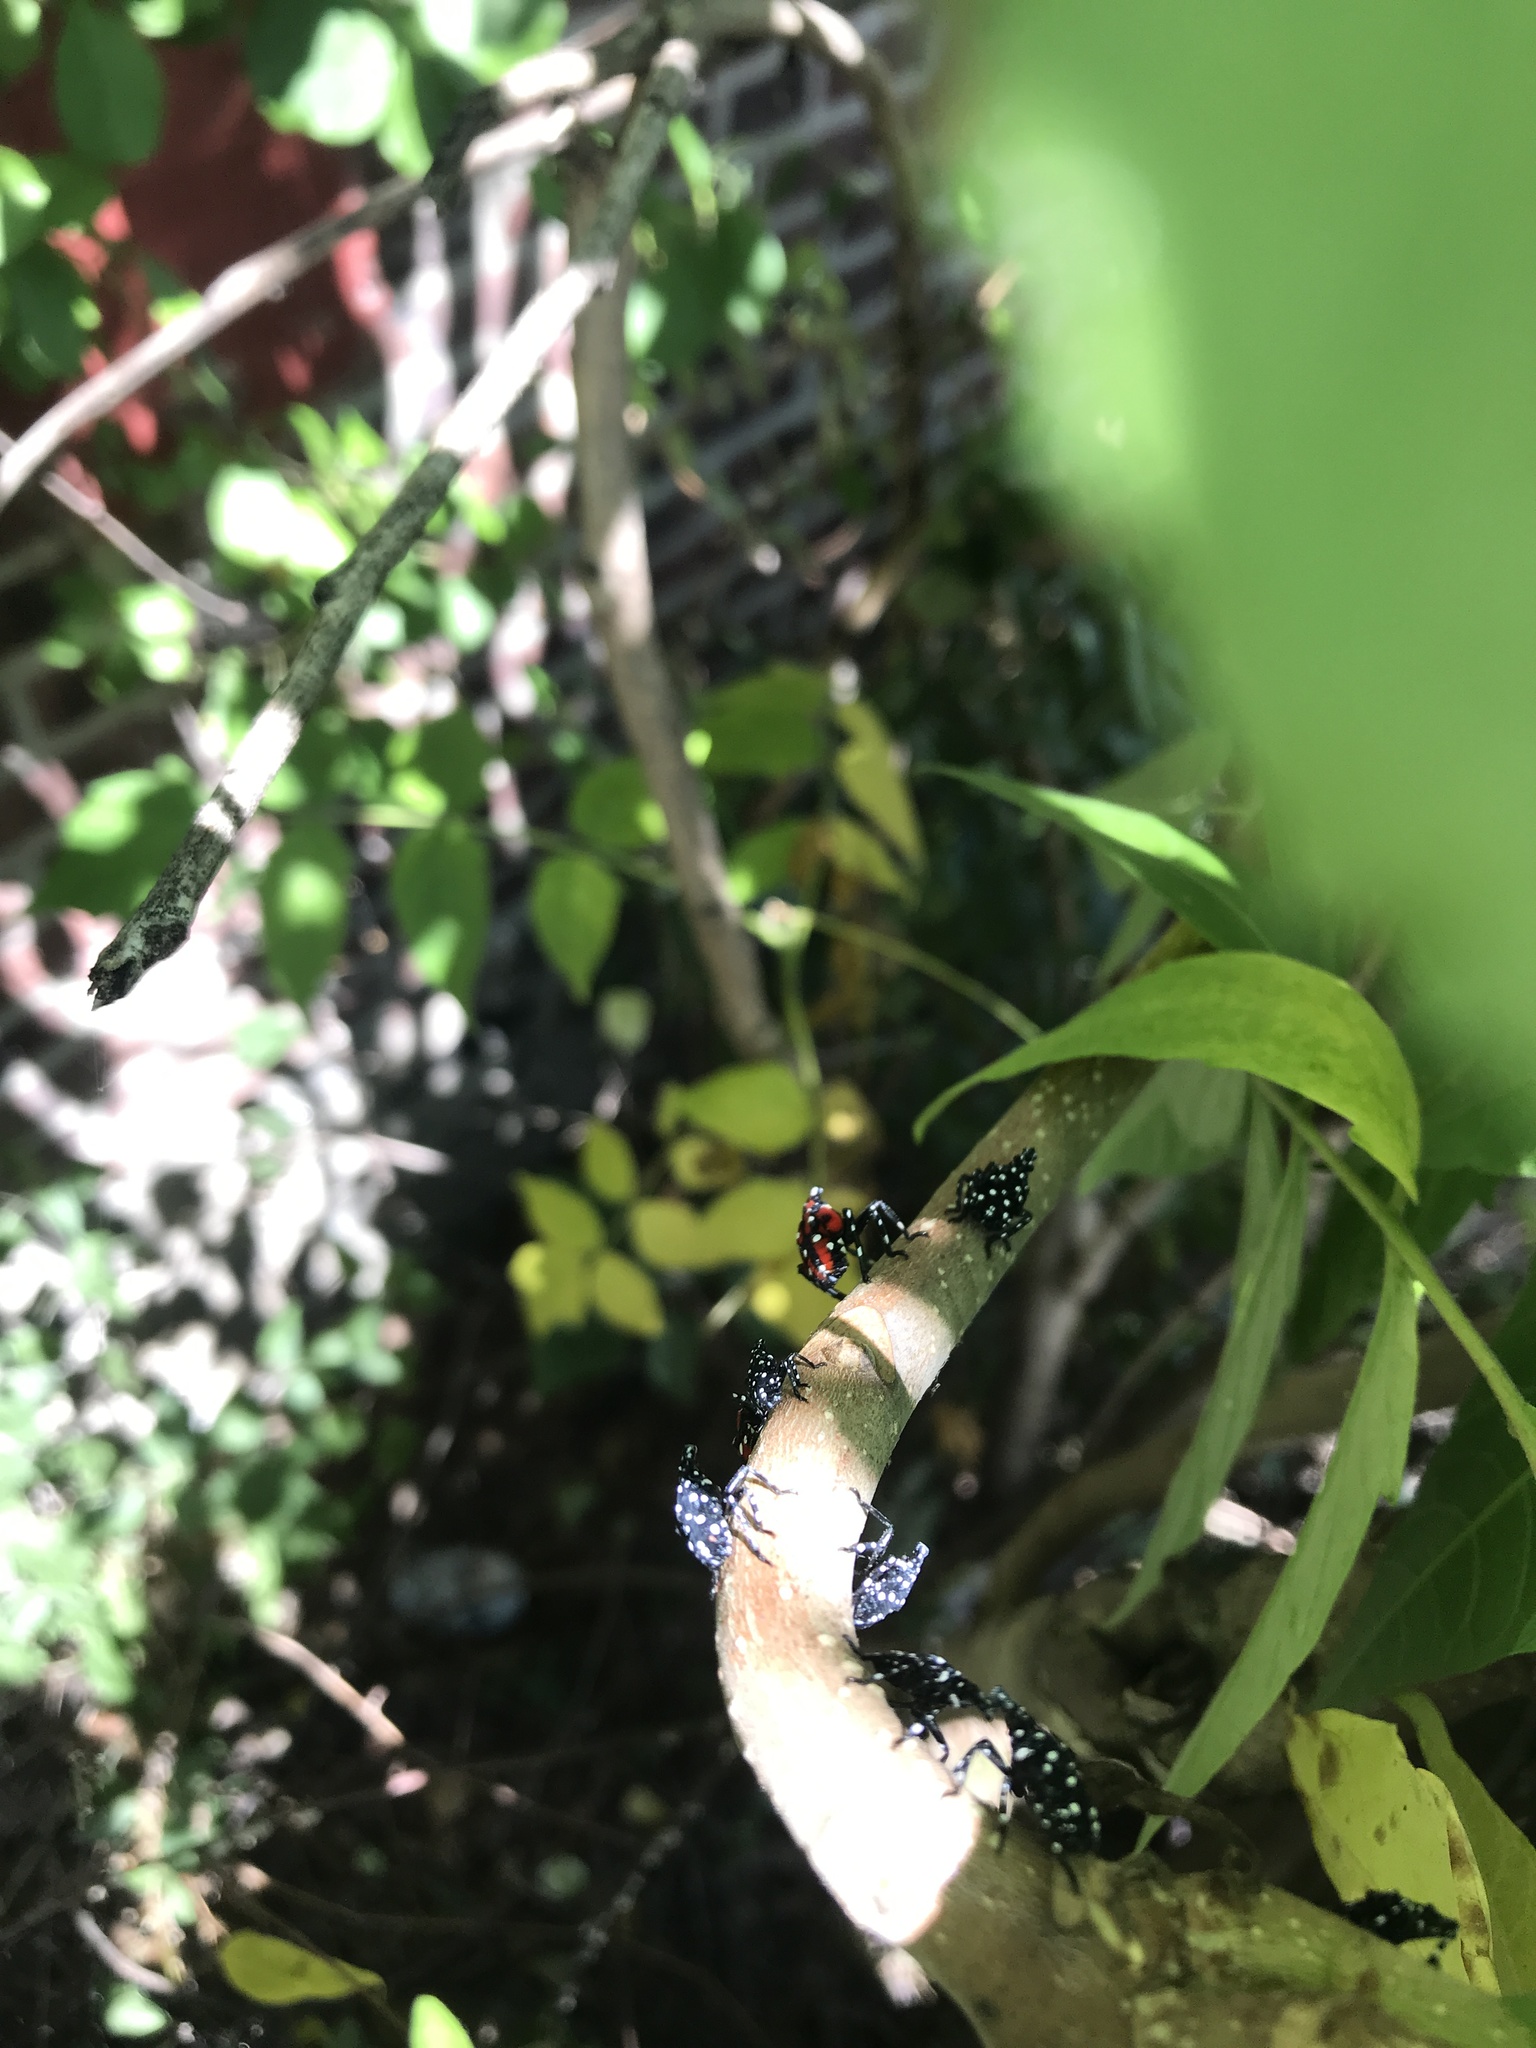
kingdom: Animalia
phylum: Arthropoda
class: Insecta
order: Hemiptera
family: Fulgoridae
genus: Lycorma
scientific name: Lycorma delicatula
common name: Spotted lanternfly
